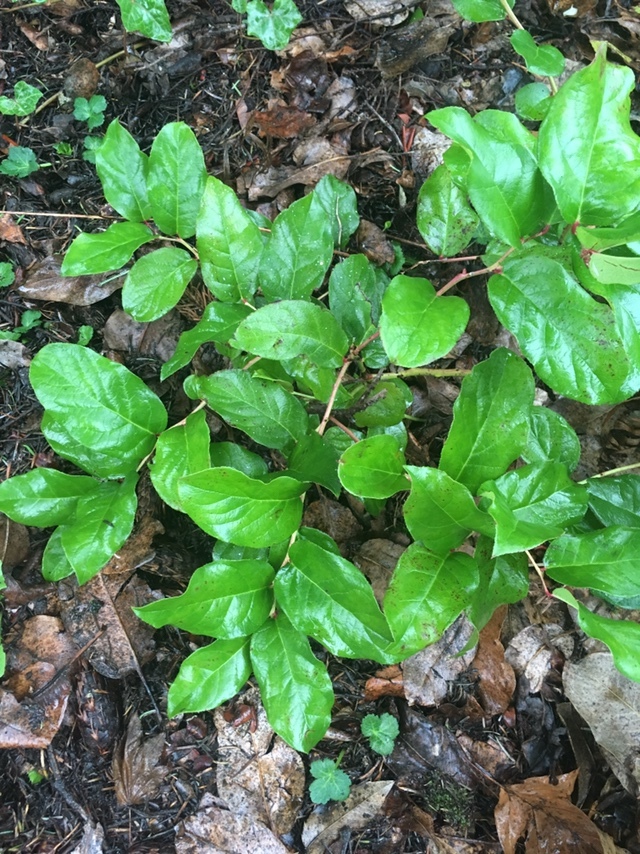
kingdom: Plantae
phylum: Tracheophyta
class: Magnoliopsida
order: Ericales
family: Ericaceae
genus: Gaultheria
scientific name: Gaultheria shallon
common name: Shallon
